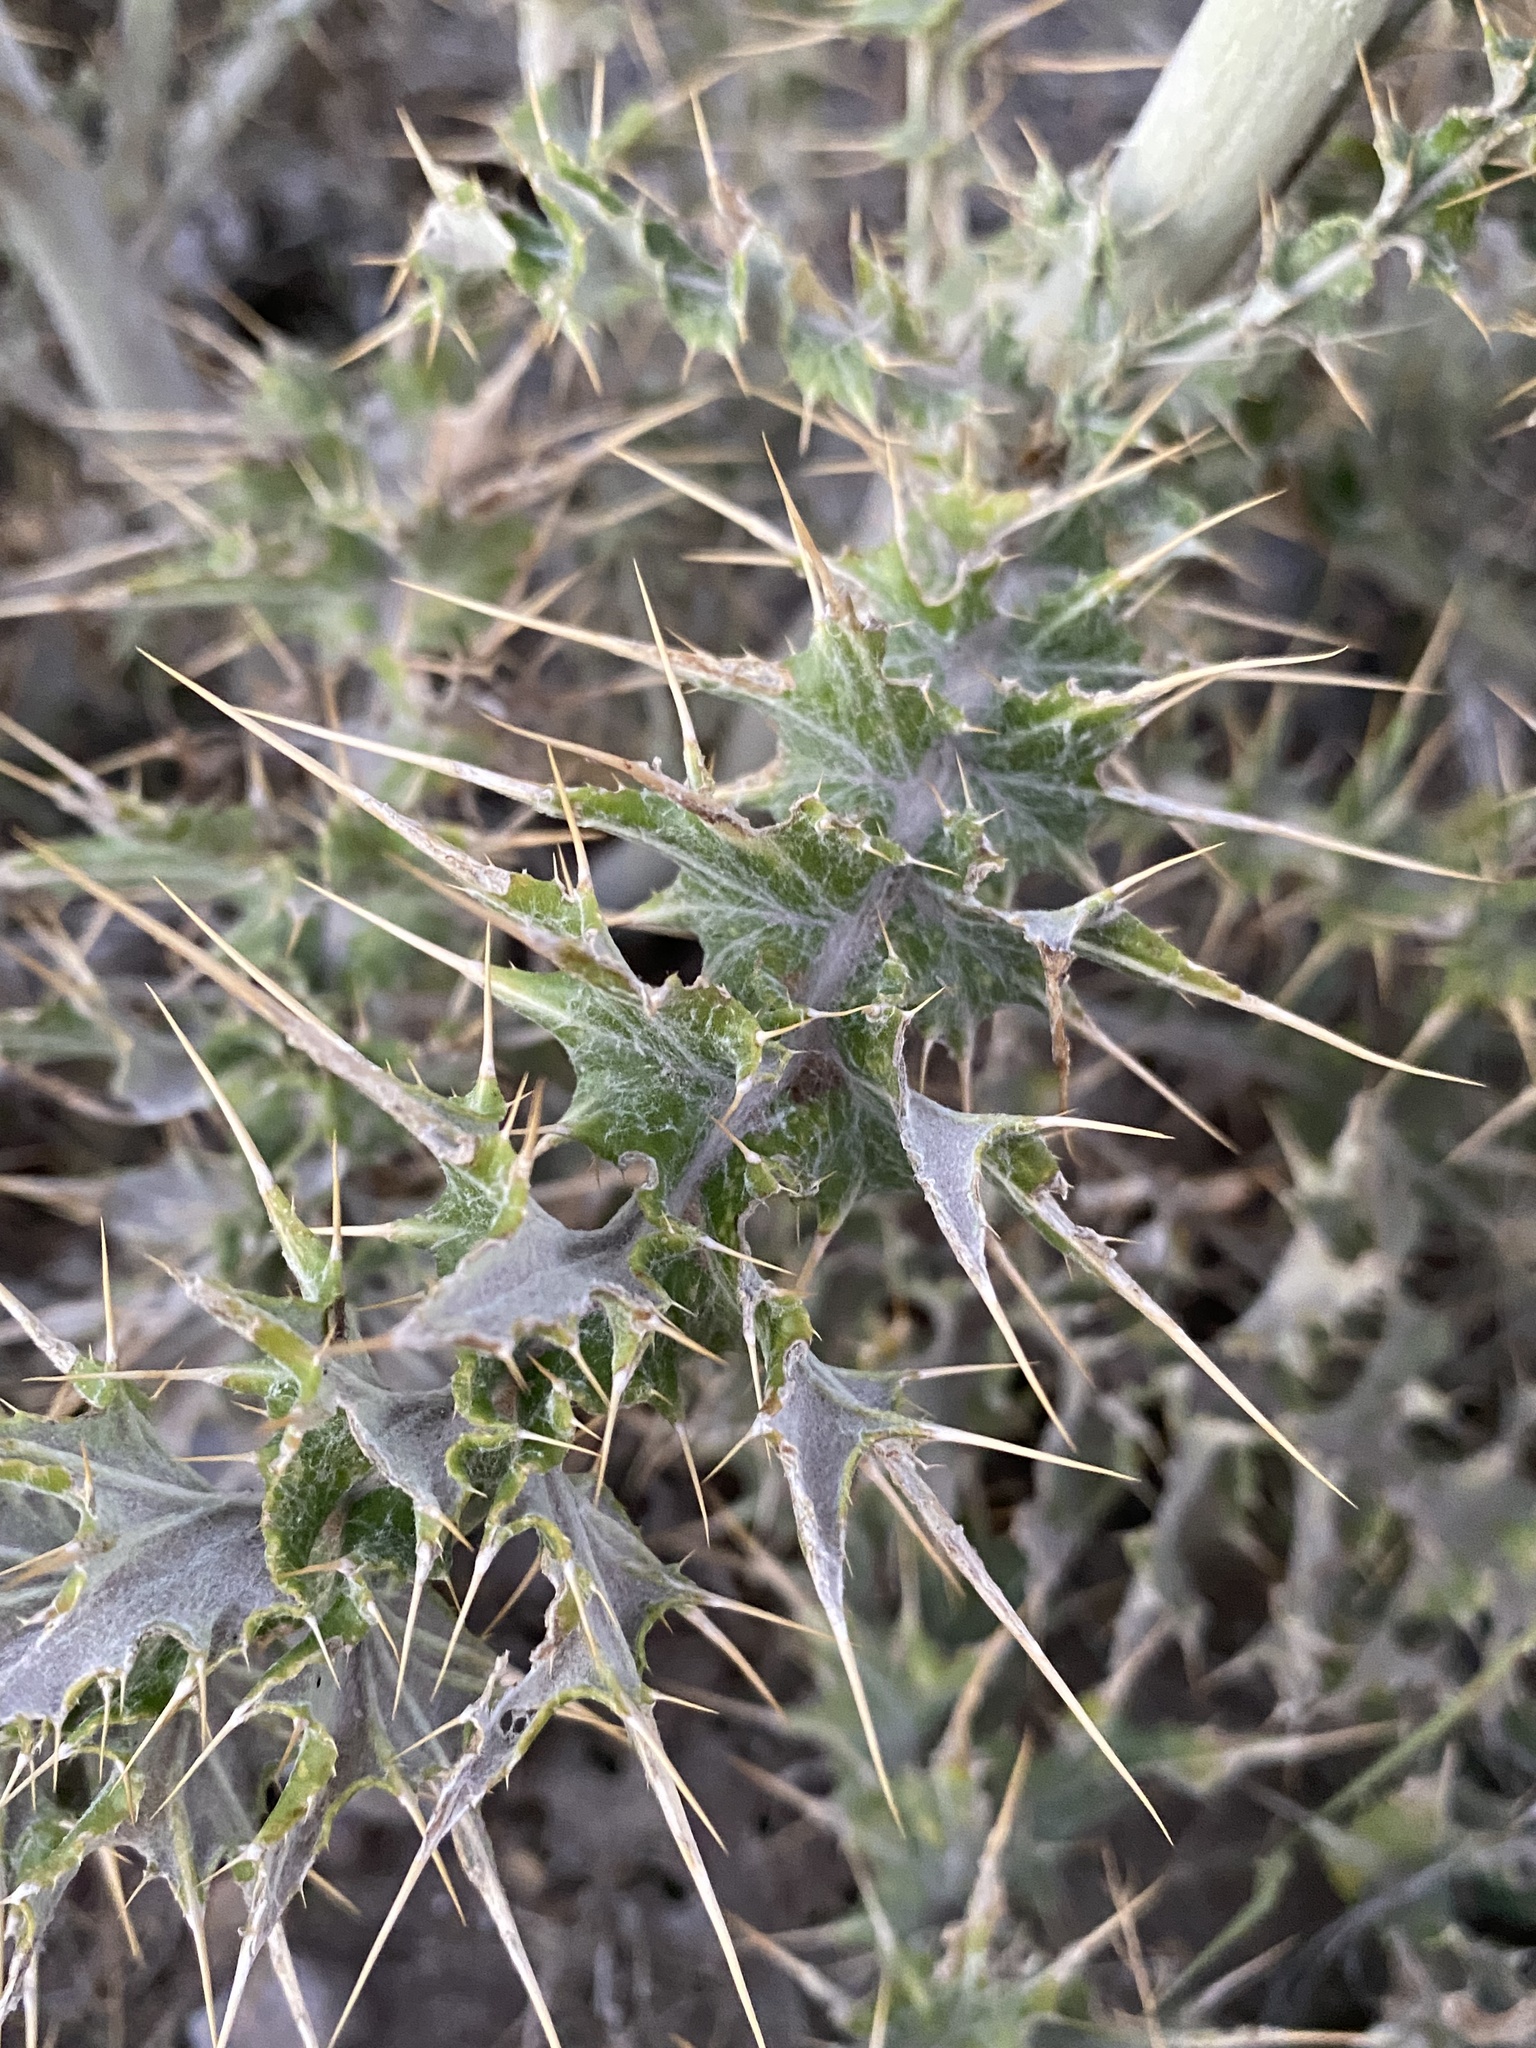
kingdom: Plantae
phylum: Tracheophyta
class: Magnoliopsida
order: Asterales
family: Asteraceae
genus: Cirsium
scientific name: Cirsium ochrocentrum
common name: Yellow-spine thistle
